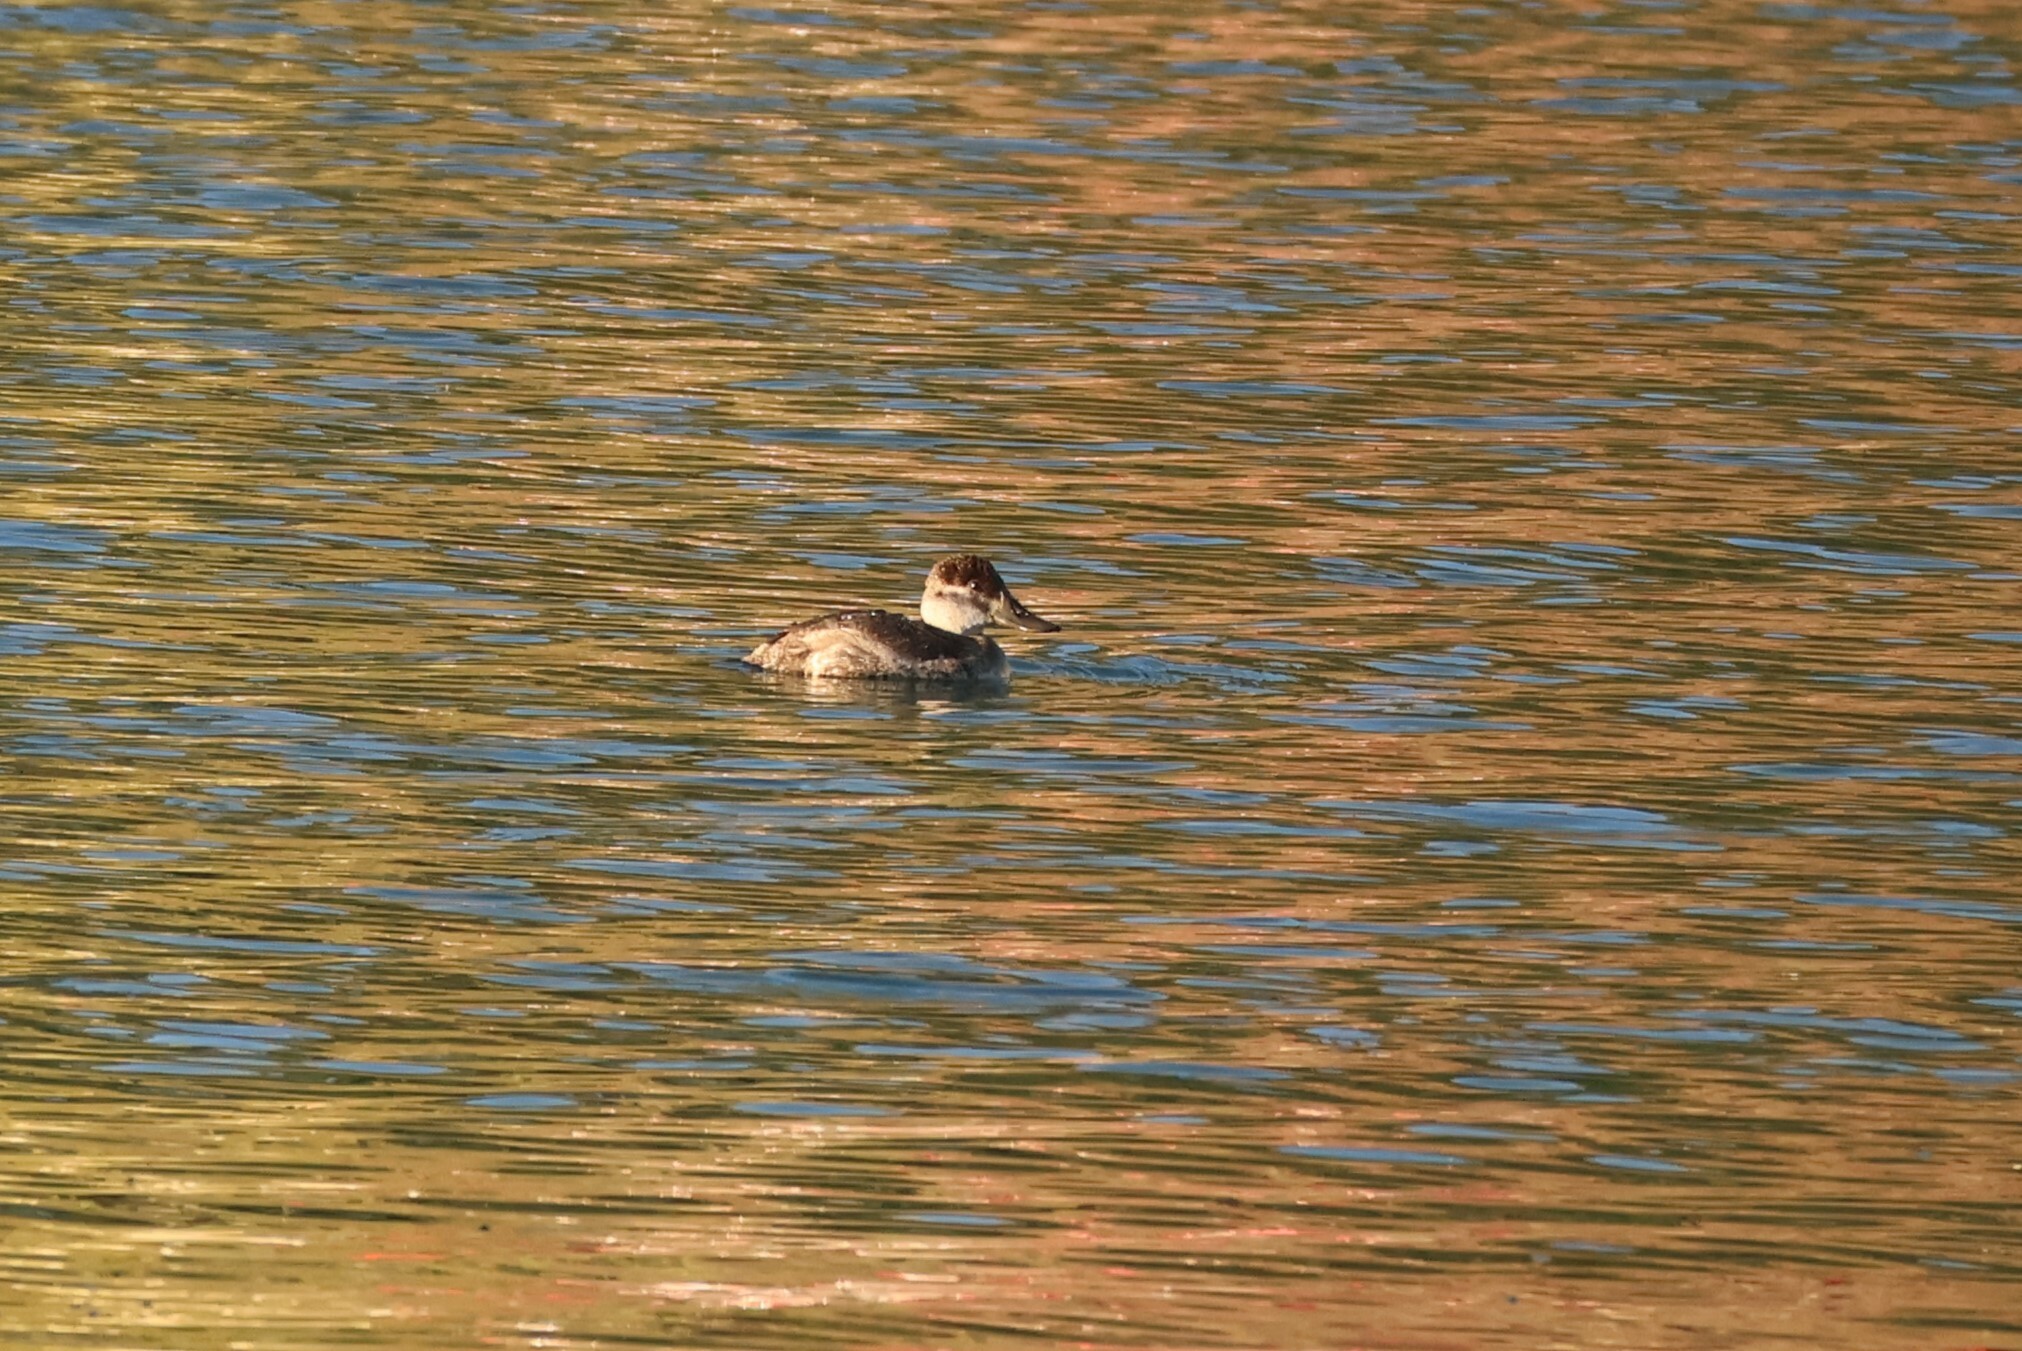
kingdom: Animalia
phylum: Chordata
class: Aves
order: Anseriformes
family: Anatidae
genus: Oxyura
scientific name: Oxyura jamaicensis
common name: Ruddy duck
